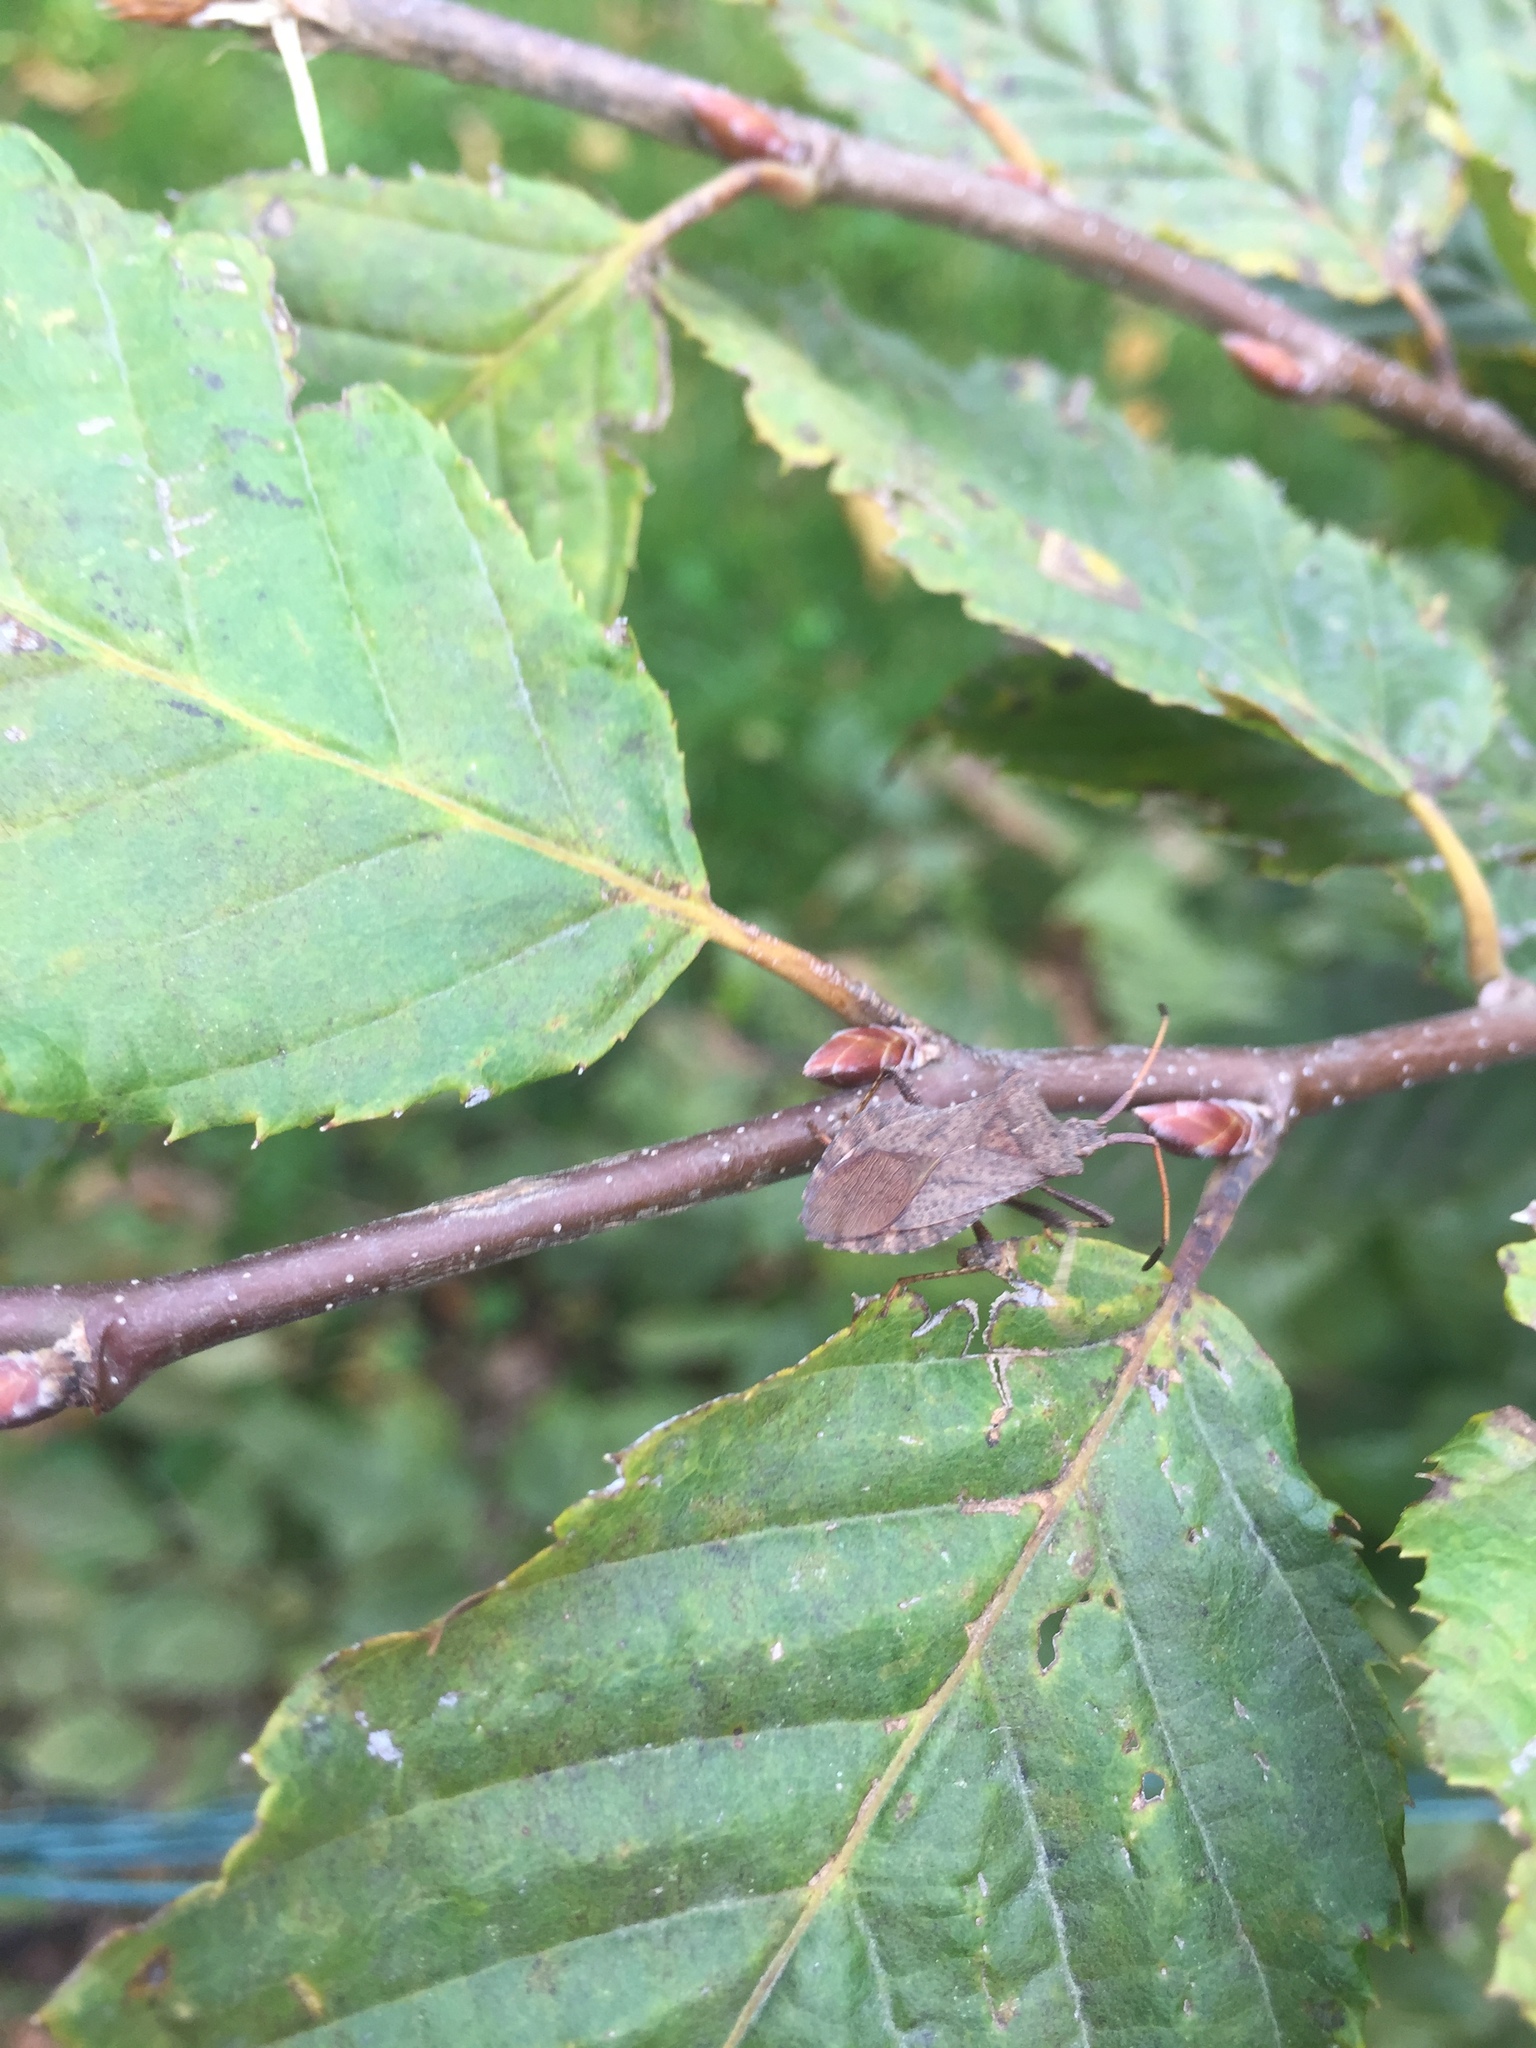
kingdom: Animalia
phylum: Arthropoda
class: Insecta
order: Hemiptera
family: Coreidae
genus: Coreus
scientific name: Coreus marginatus
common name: Dock bug
